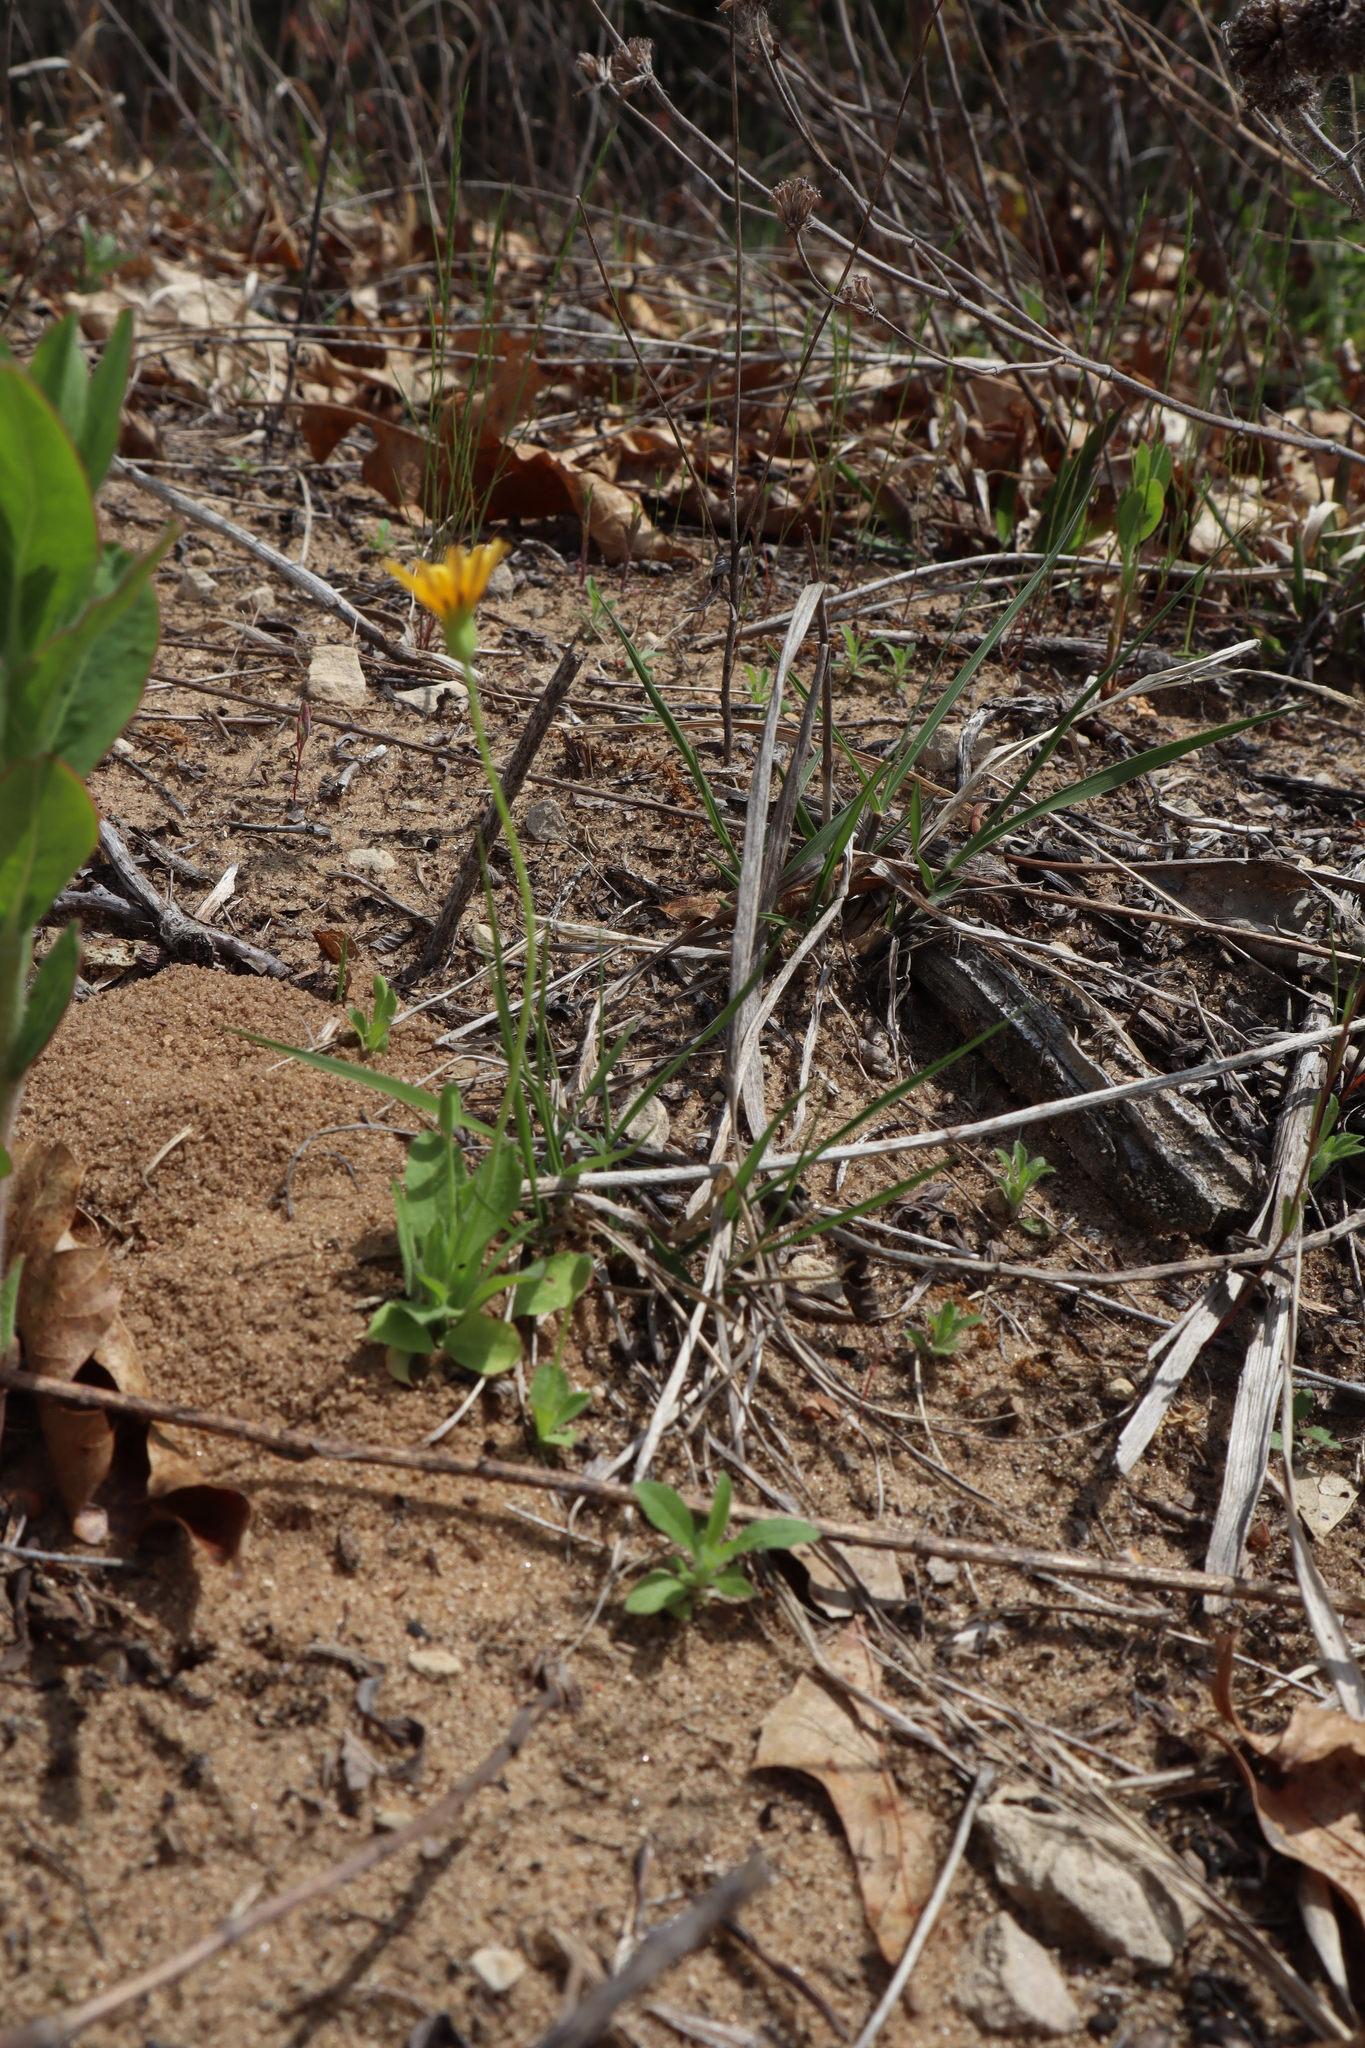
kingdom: Plantae
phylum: Tracheophyta
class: Magnoliopsida
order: Asterales
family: Asteraceae
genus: Krigia
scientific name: Krigia virginica
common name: Virginia dwarf-dandelion
